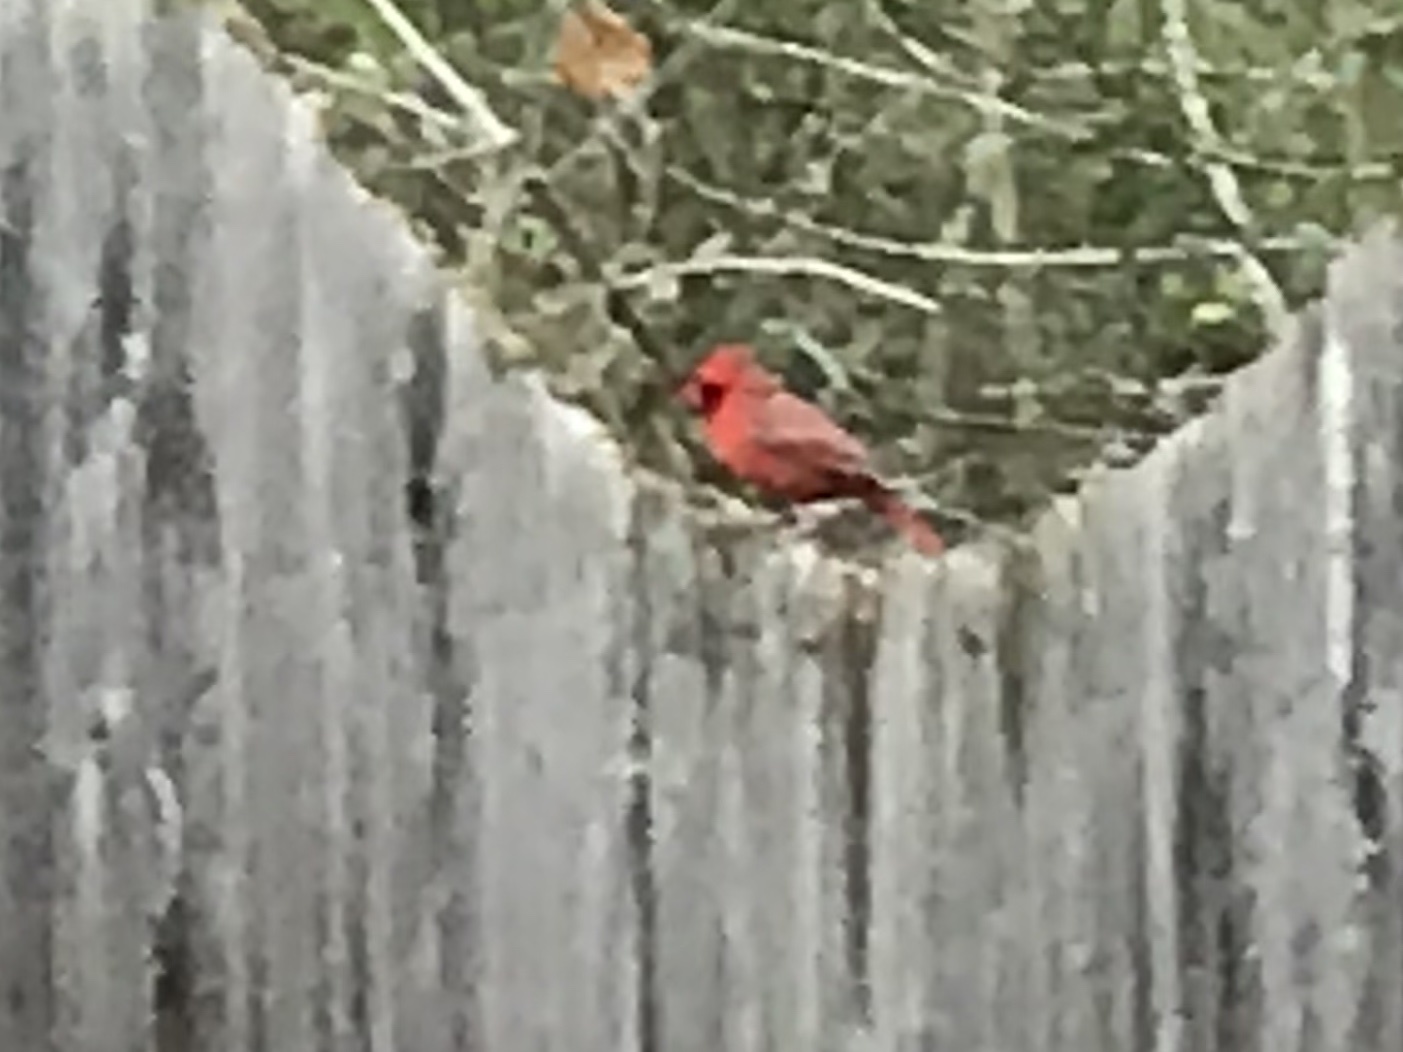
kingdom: Animalia
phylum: Chordata
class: Aves
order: Passeriformes
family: Cardinalidae
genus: Cardinalis
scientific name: Cardinalis cardinalis
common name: Northern cardinal
